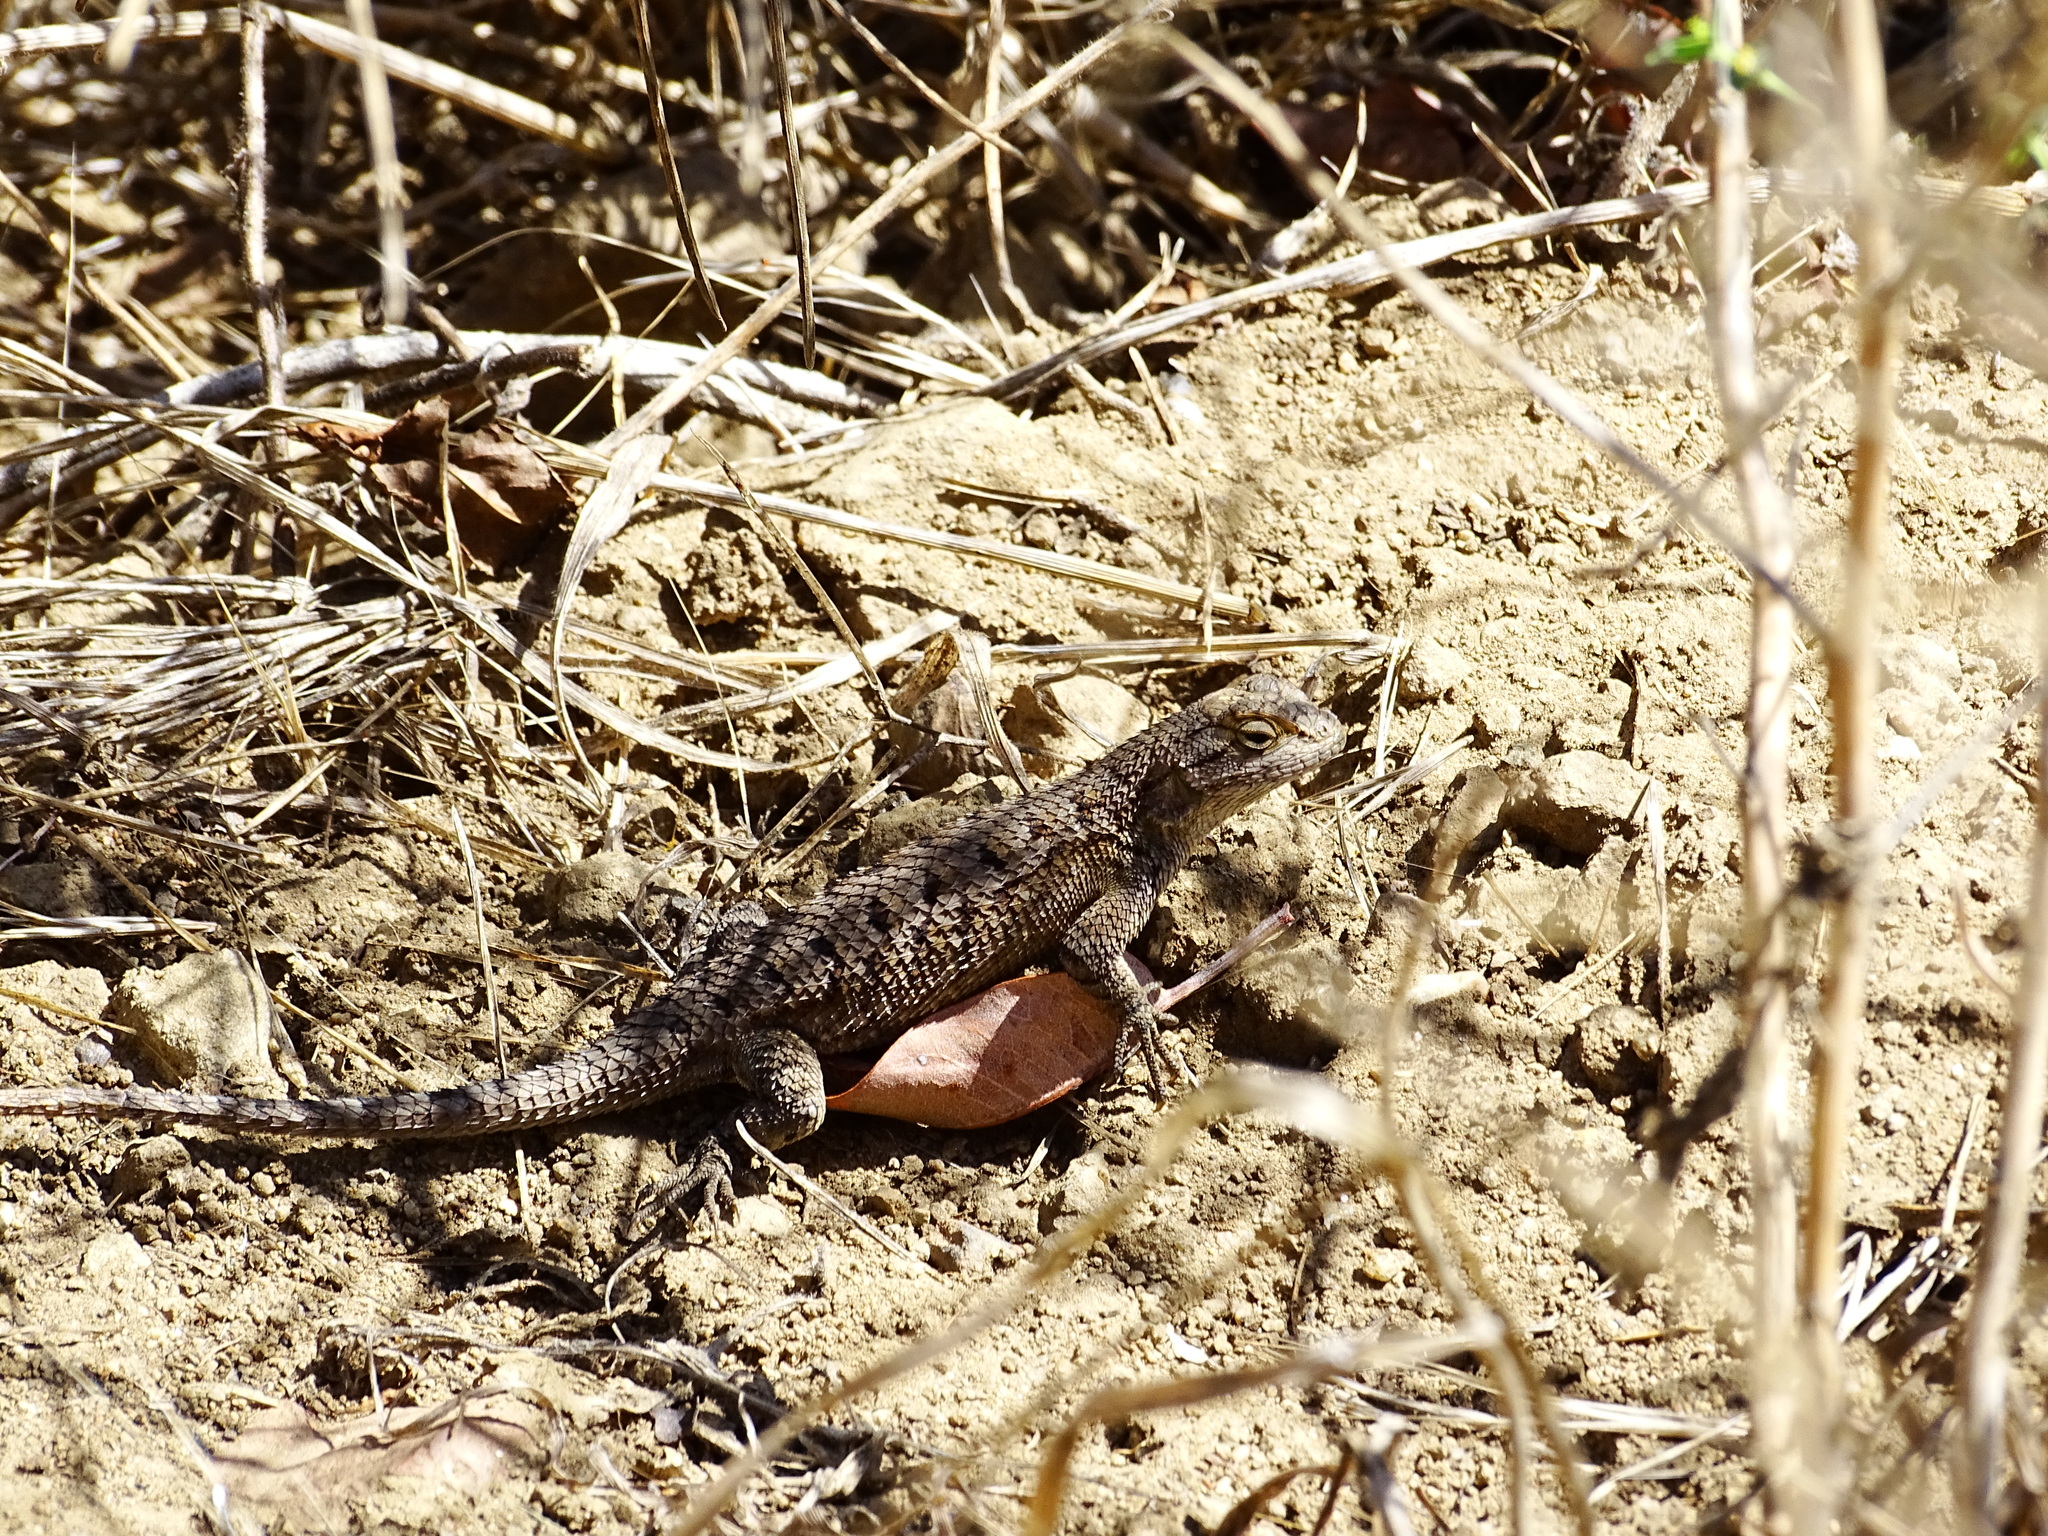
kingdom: Animalia
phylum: Chordata
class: Squamata
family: Phrynosomatidae
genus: Sceloporus
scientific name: Sceloporus occidentalis
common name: Western fence lizard
